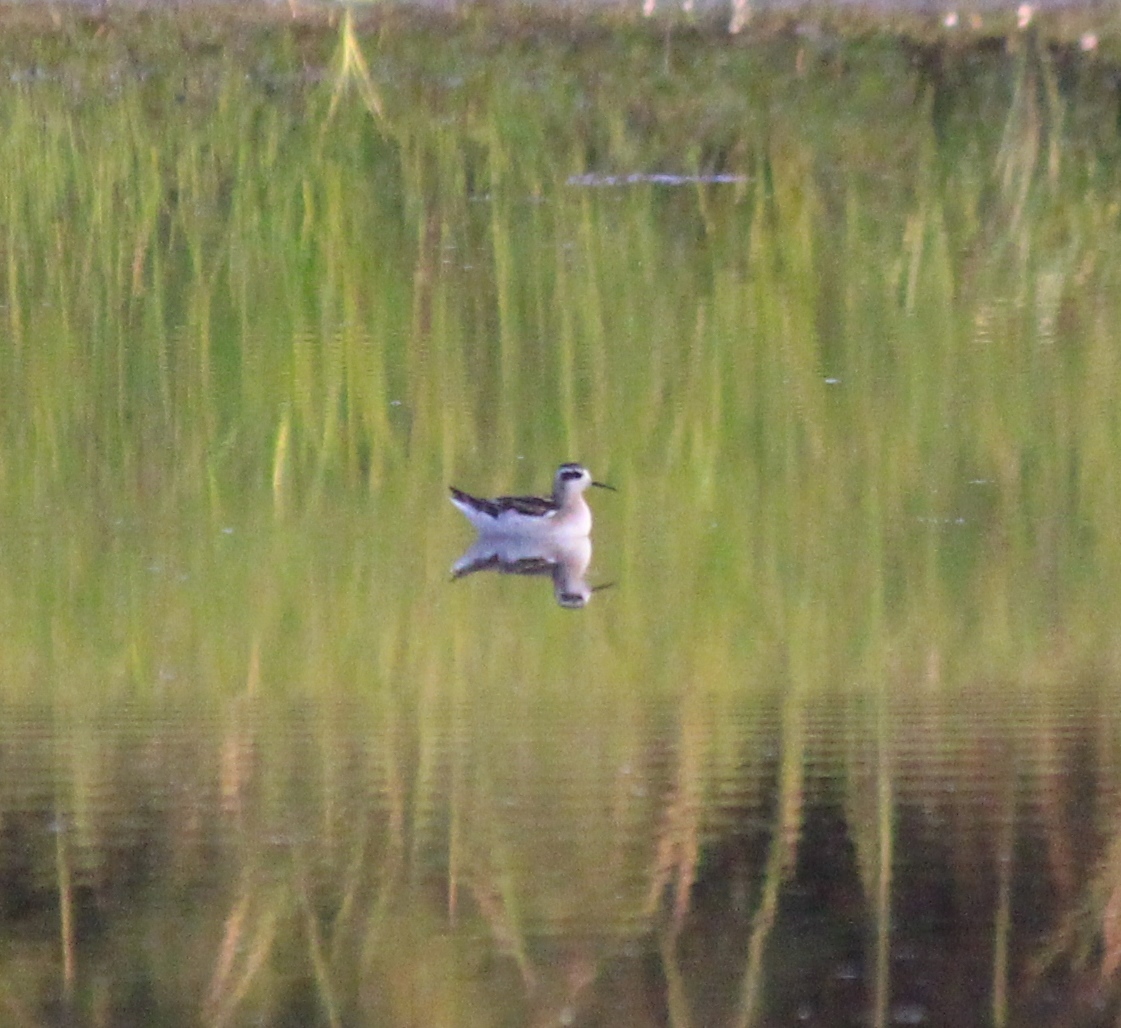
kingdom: Animalia
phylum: Chordata
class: Aves
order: Charadriiformes
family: Scolopacidae
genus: Phalaropus
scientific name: Phalaropus lobatus
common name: Red-necked phalarope
